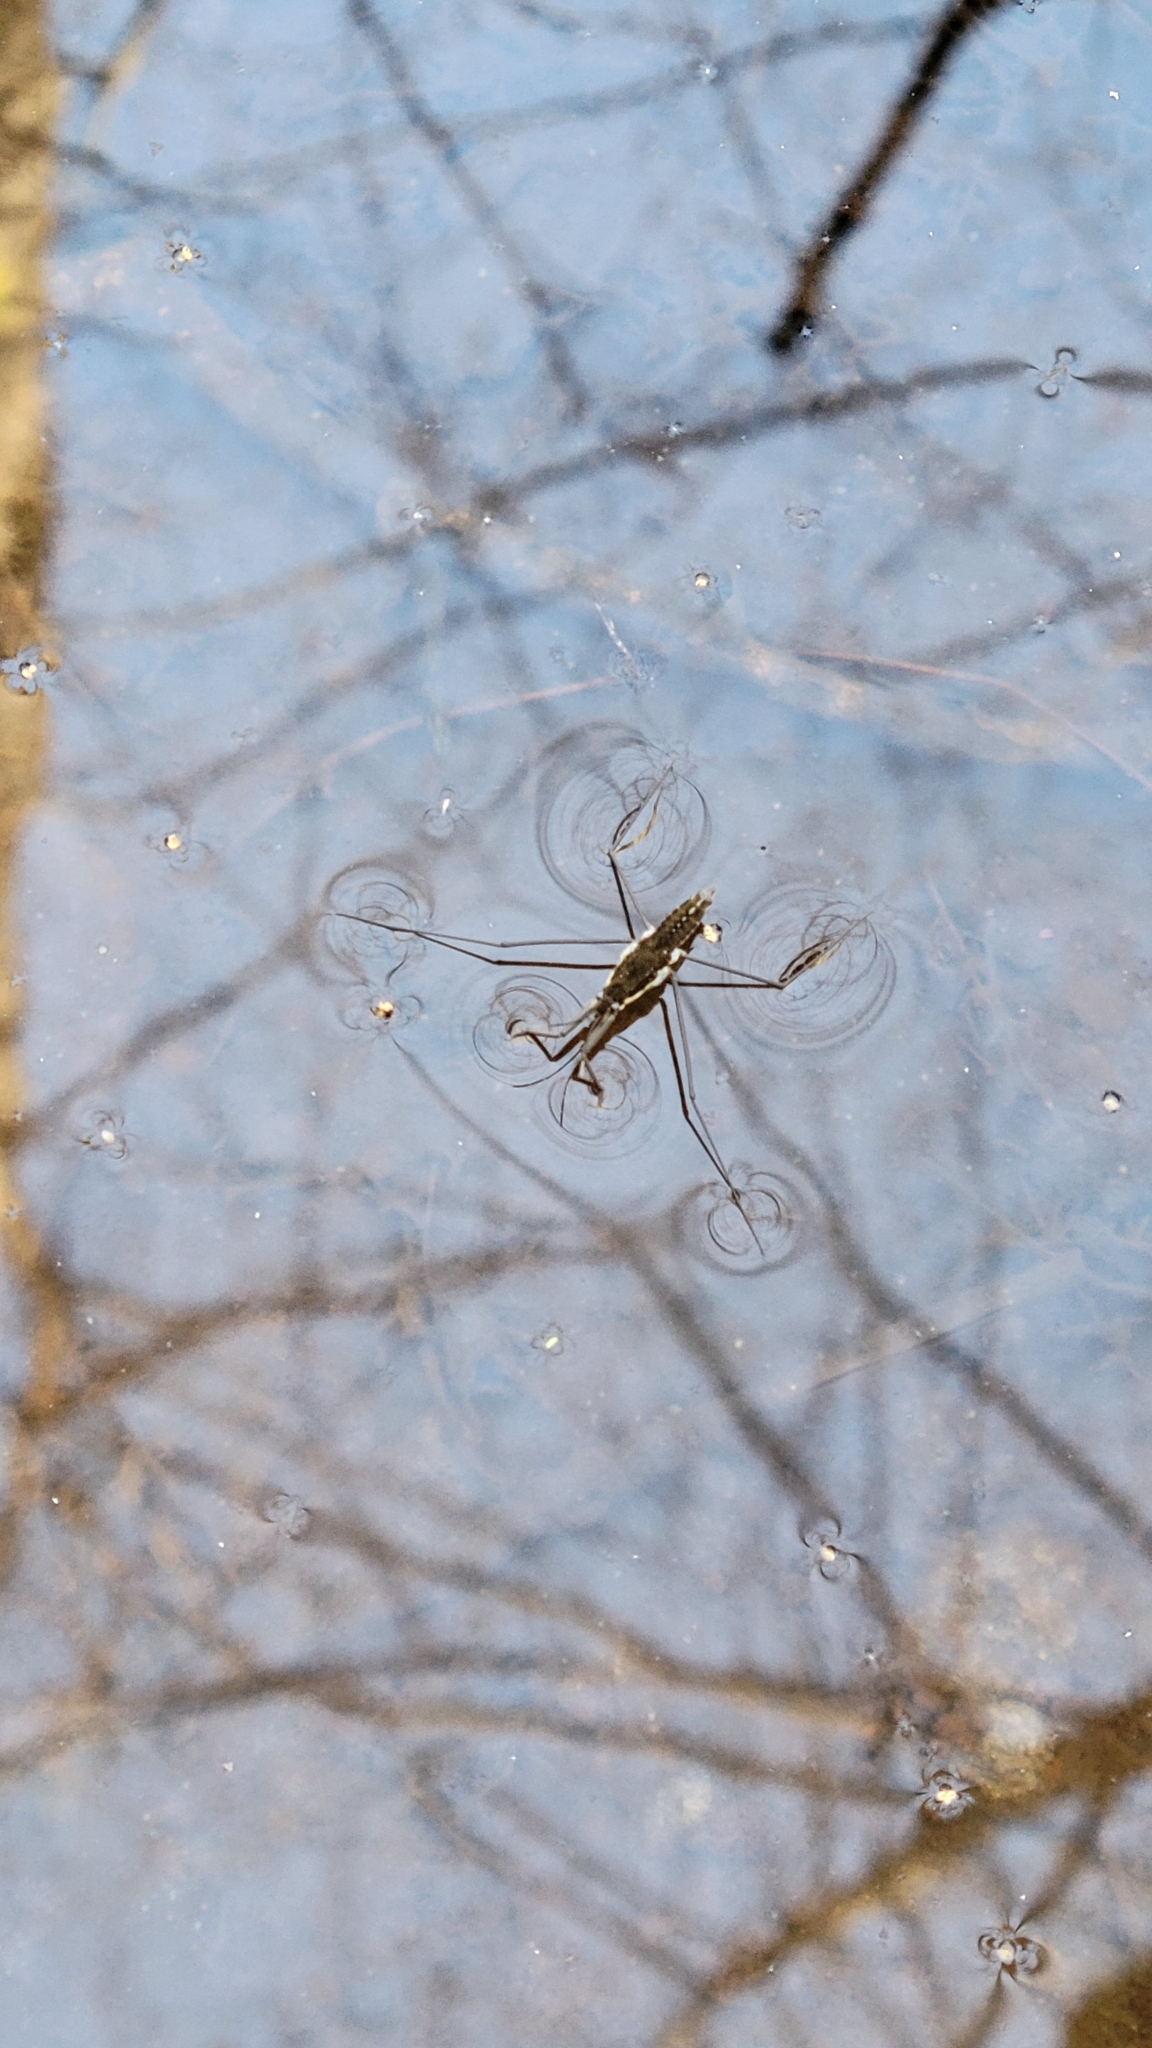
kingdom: Animalia
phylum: Arthropoda
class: Insecta
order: Hemiptera
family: Gerridae
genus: Aquarius
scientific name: Aquarius remigis
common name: Common water strider
